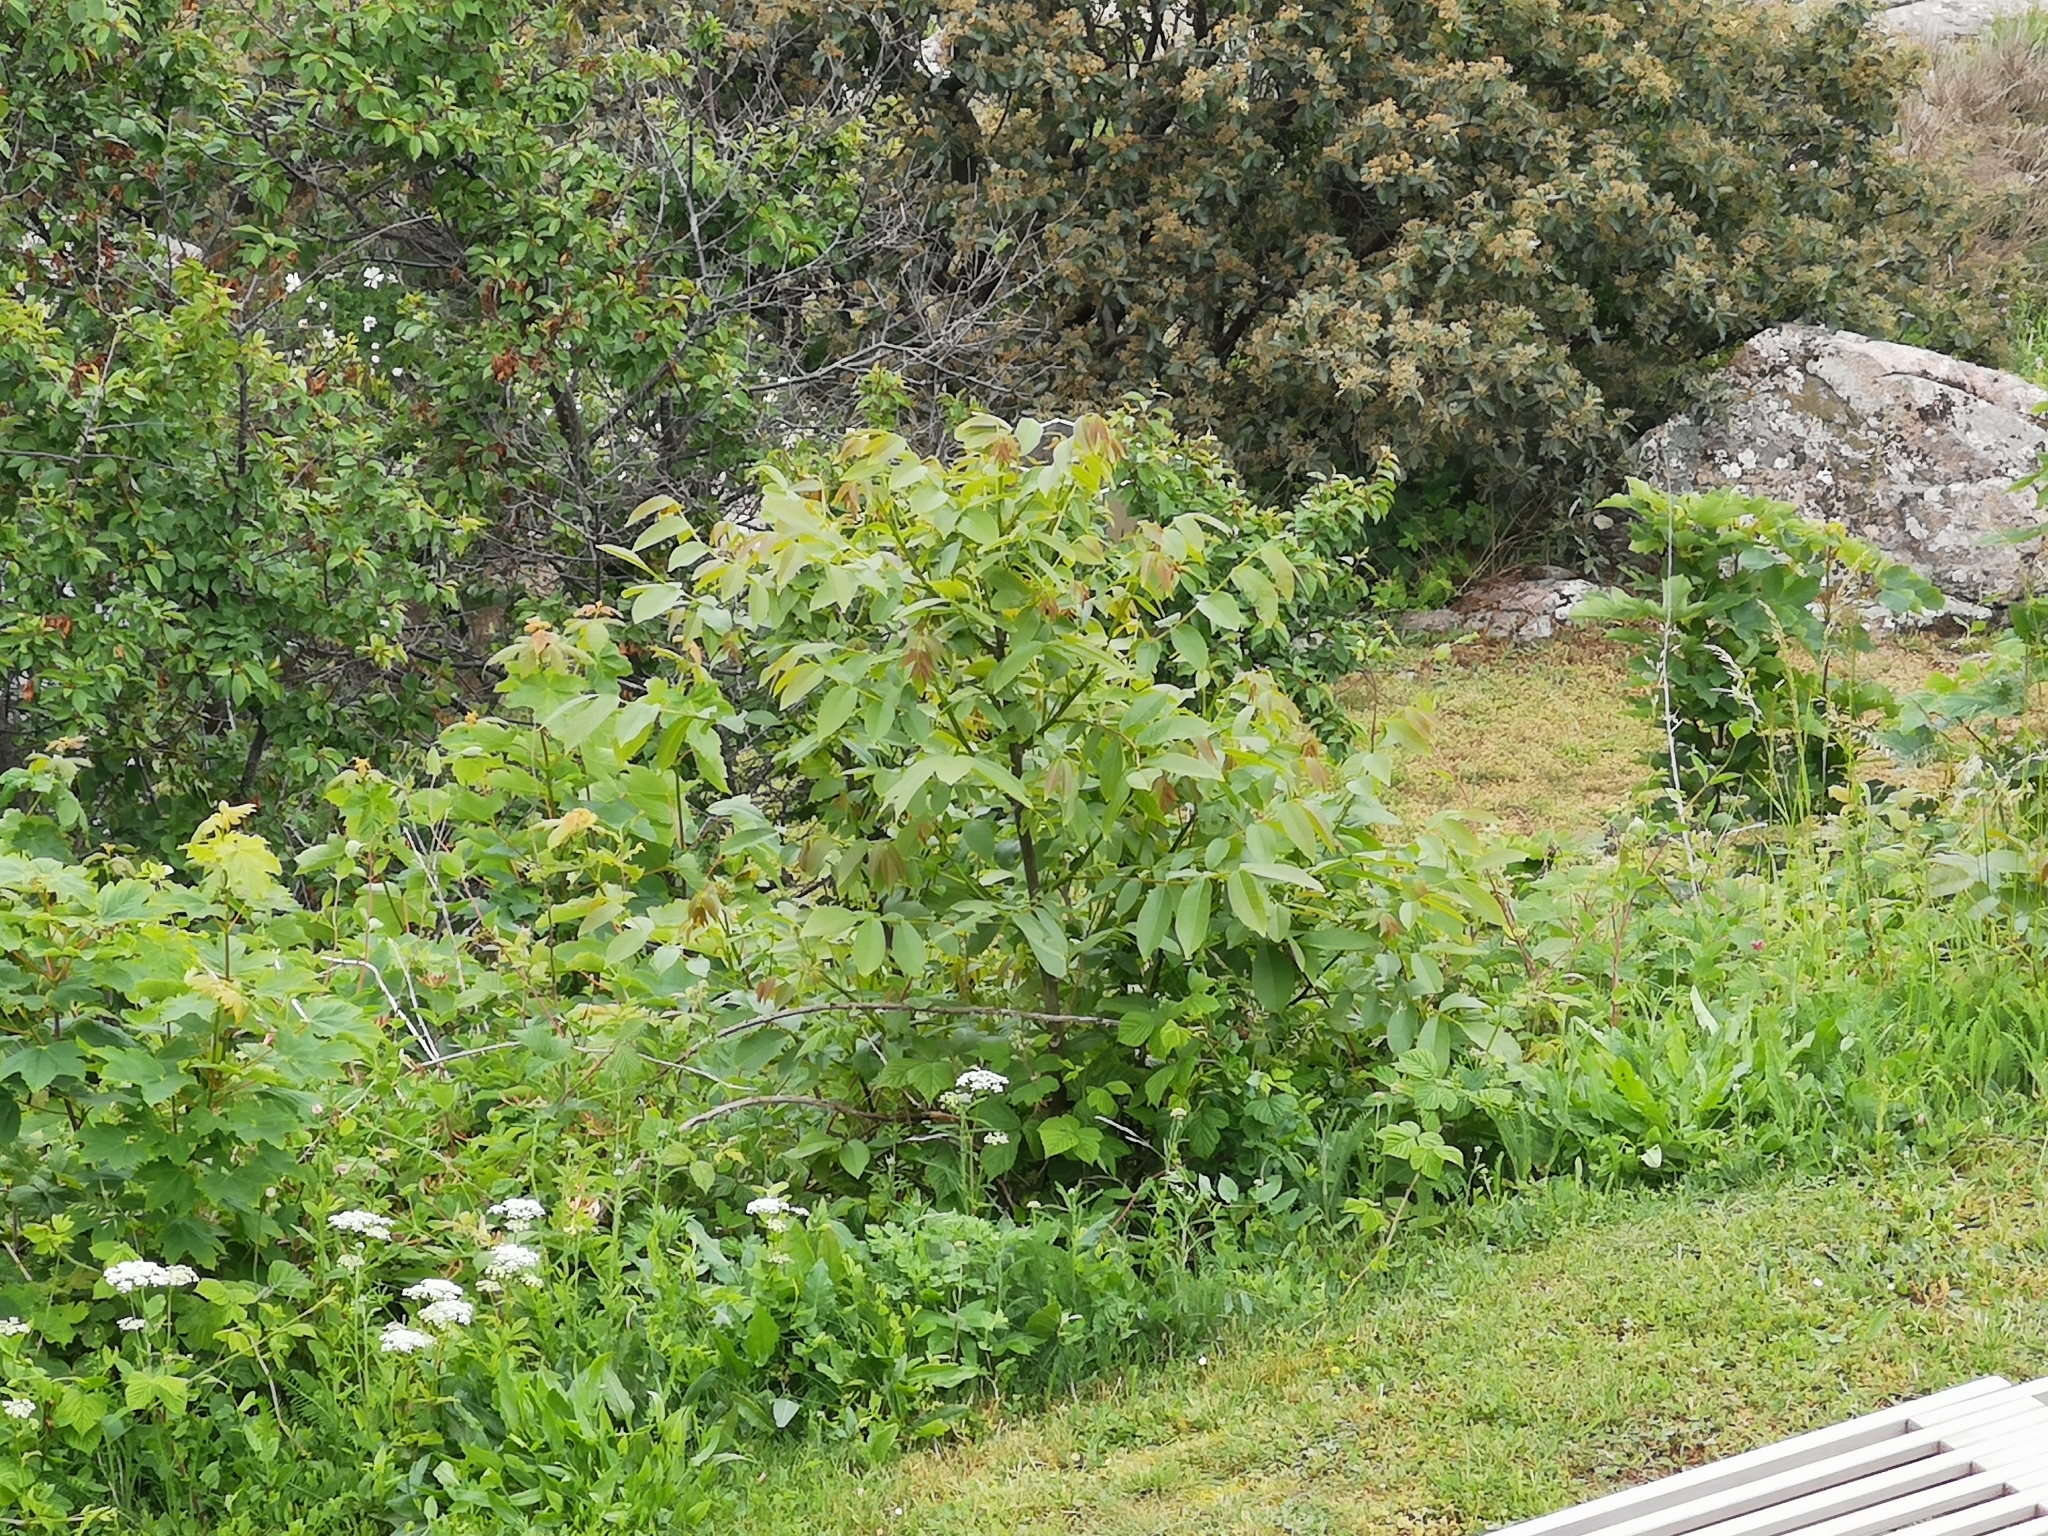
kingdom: Plantae
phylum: Tracheophyta
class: Magnoliopsida
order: Fagales
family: Juglandaceae
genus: Juglans
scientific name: Juglans regia
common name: Walnut
